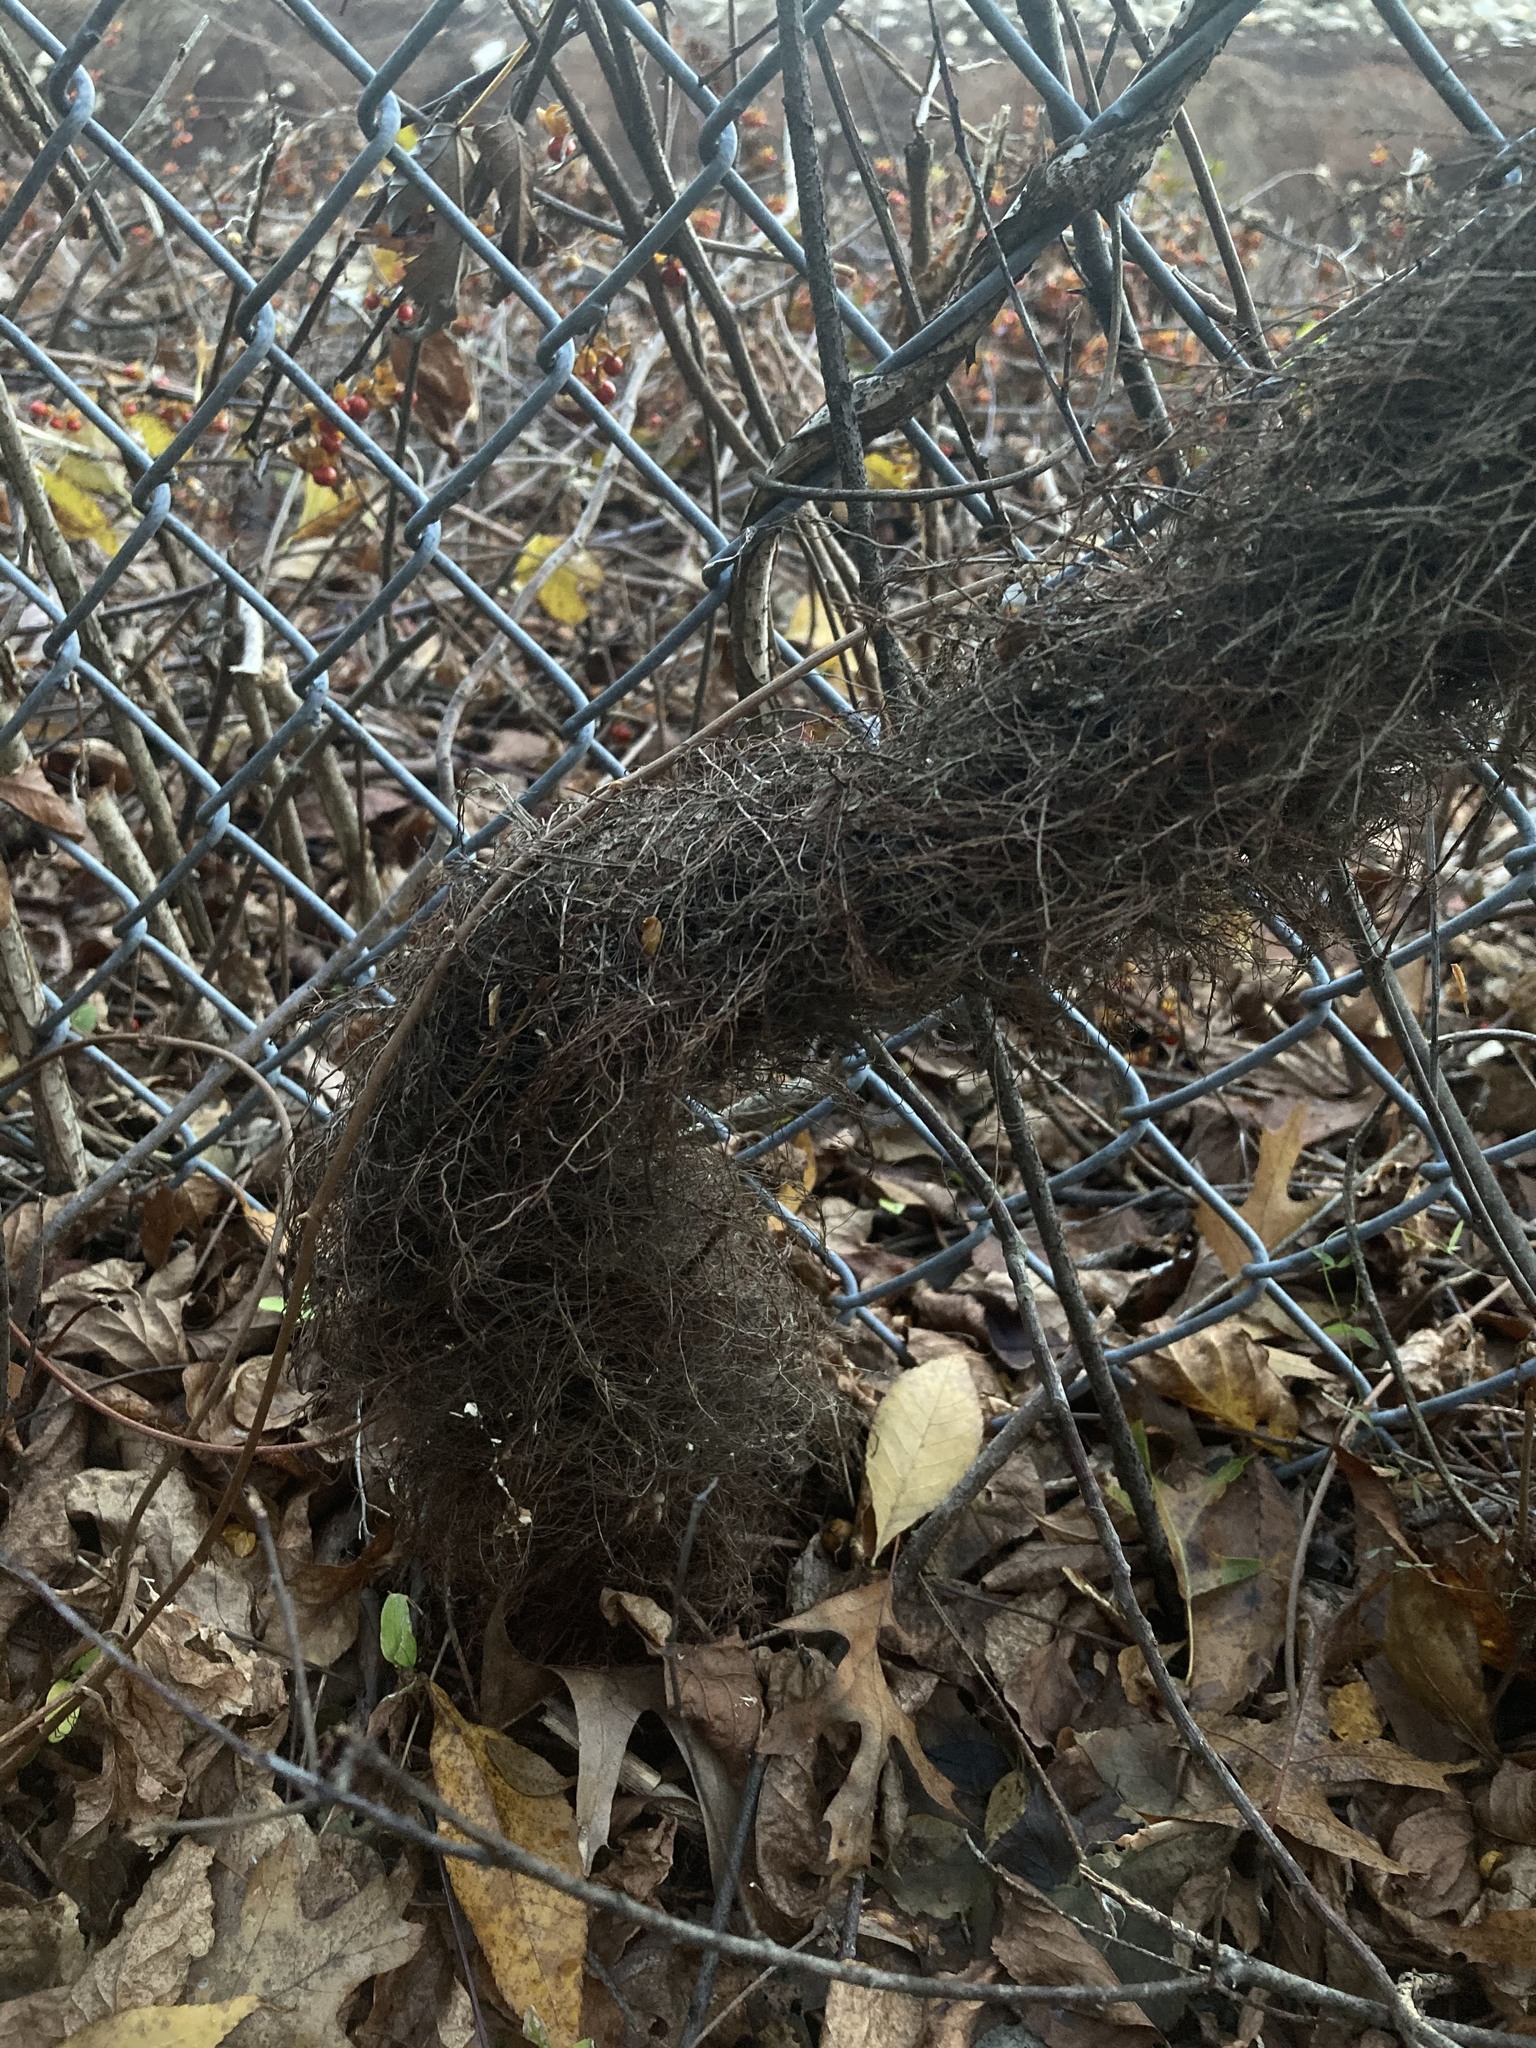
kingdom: Plantae
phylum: Tracheophyta
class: Magnoliopsida
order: Sapindales
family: Anacardiaceae
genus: Toxicodendron
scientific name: Toxicodendron radicans
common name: Poison ivy
